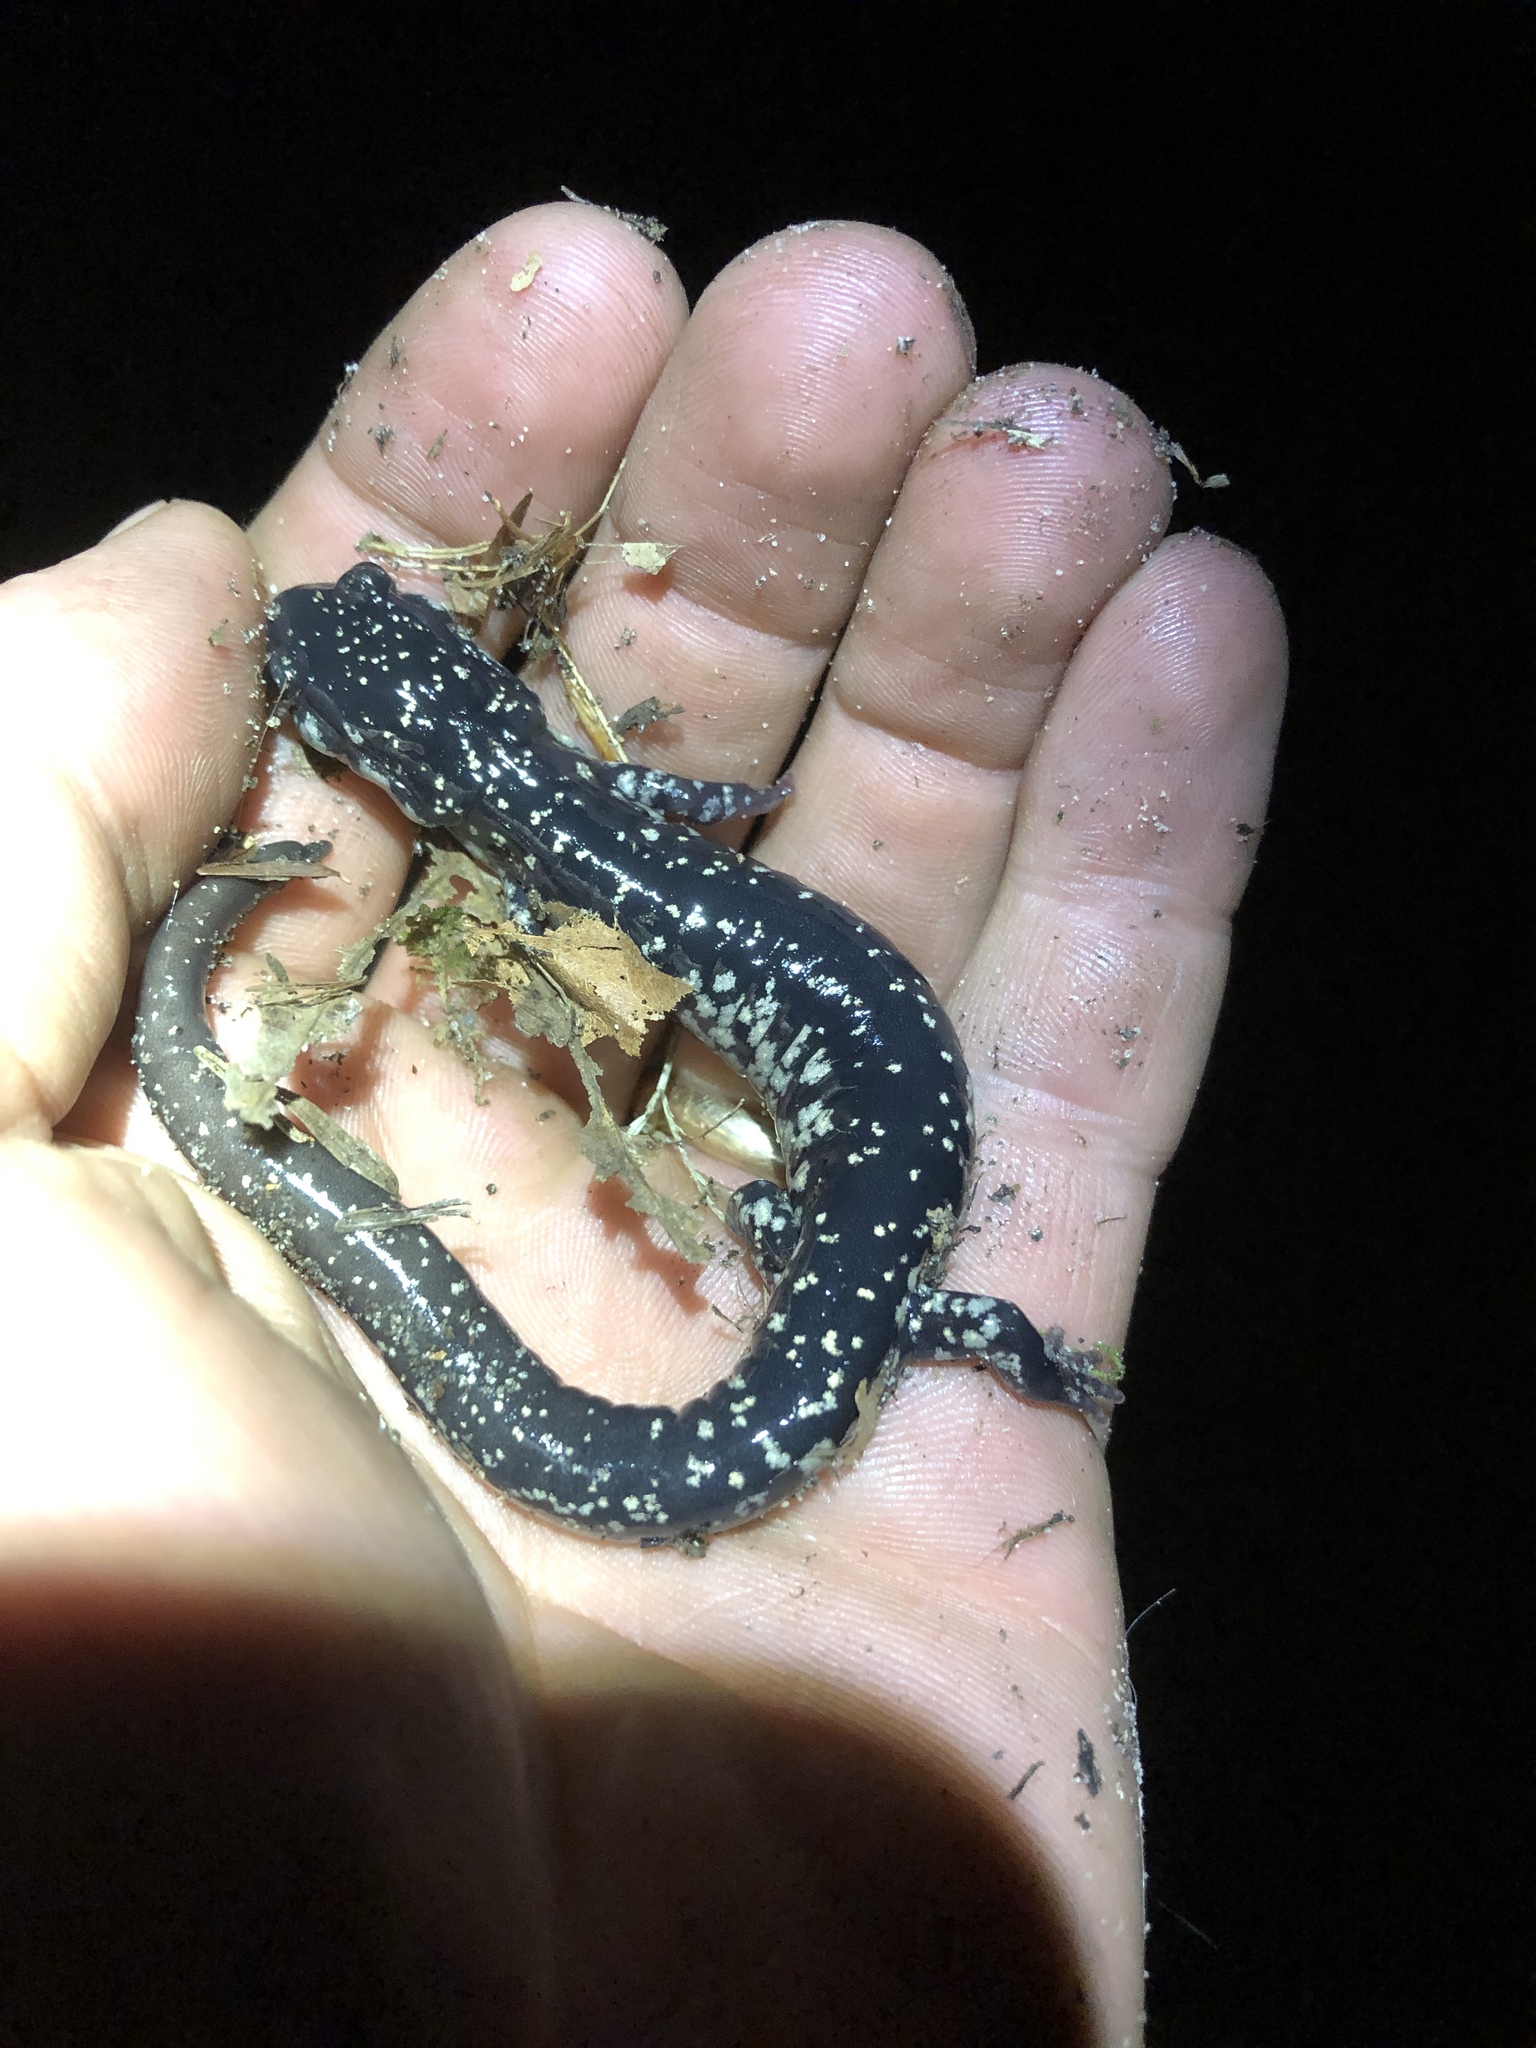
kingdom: Animalia
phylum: Chordata
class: Amphibia
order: Caudata
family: Plethodontidae
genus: Plethodon
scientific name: Plethodon glutinosus
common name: Northern slimy salamander
